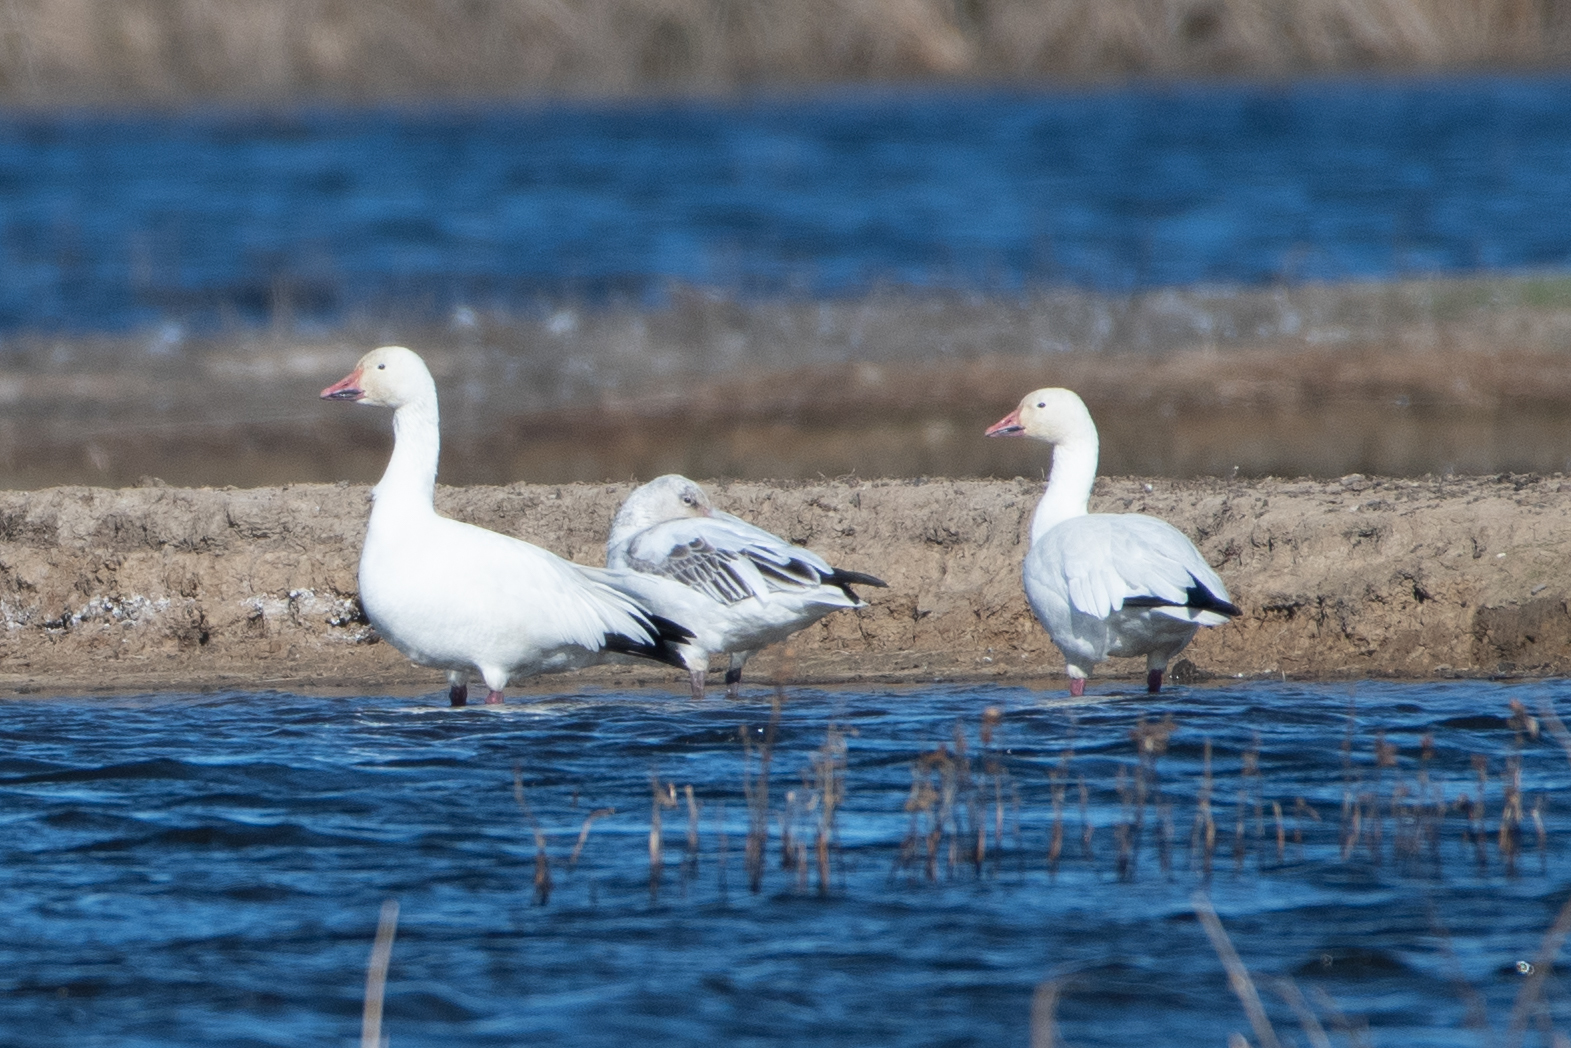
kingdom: Animalia
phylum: Chordata
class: Aves
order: Anseriformes
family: Anatidae
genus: Anser
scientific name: Anser caerulescens
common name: Snow goose
